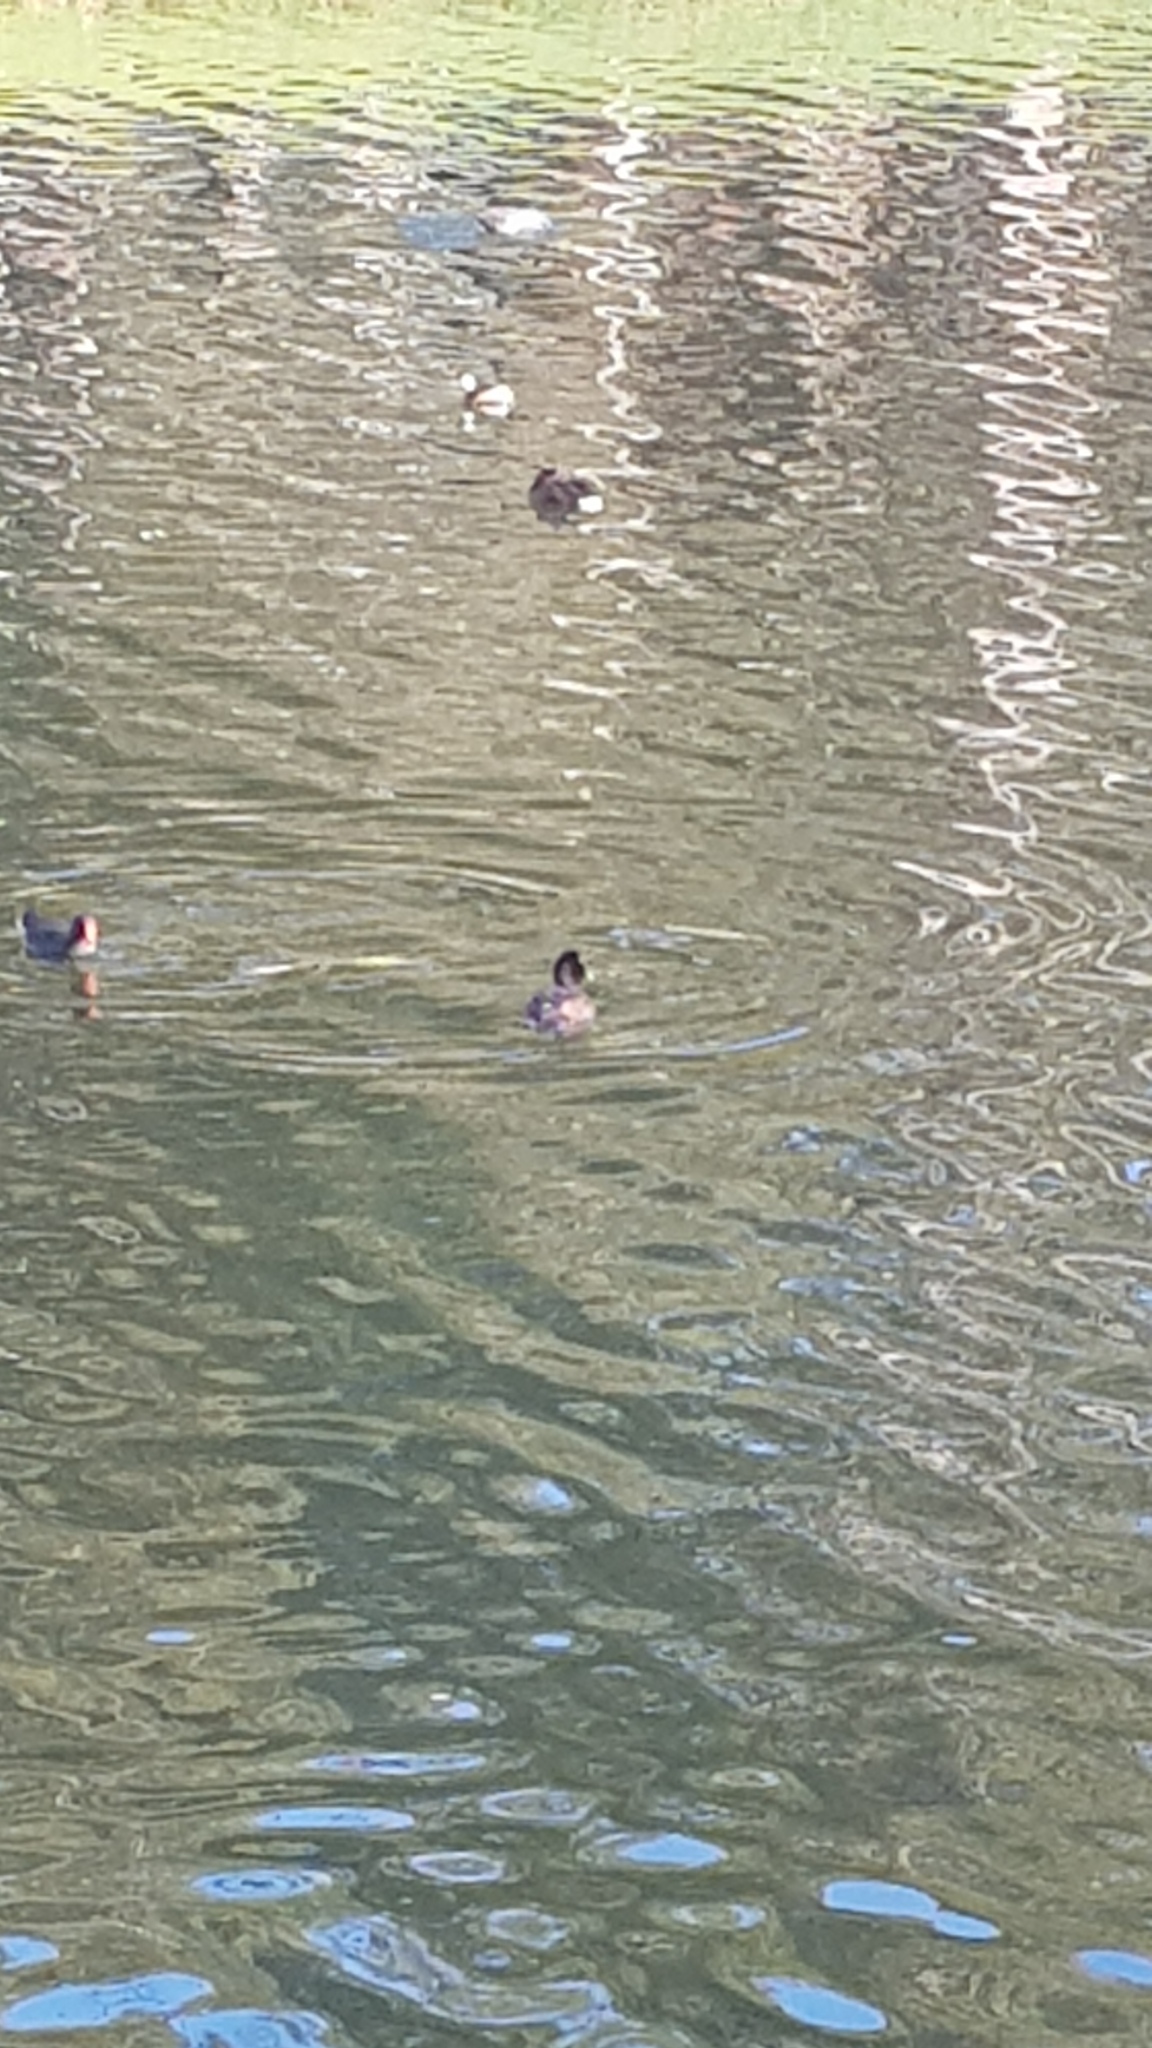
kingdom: Animalia
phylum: Chordata
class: Aves
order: Anseriformes
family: Anatidae
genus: Aythya
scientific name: Aythya australis
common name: Hardhead
